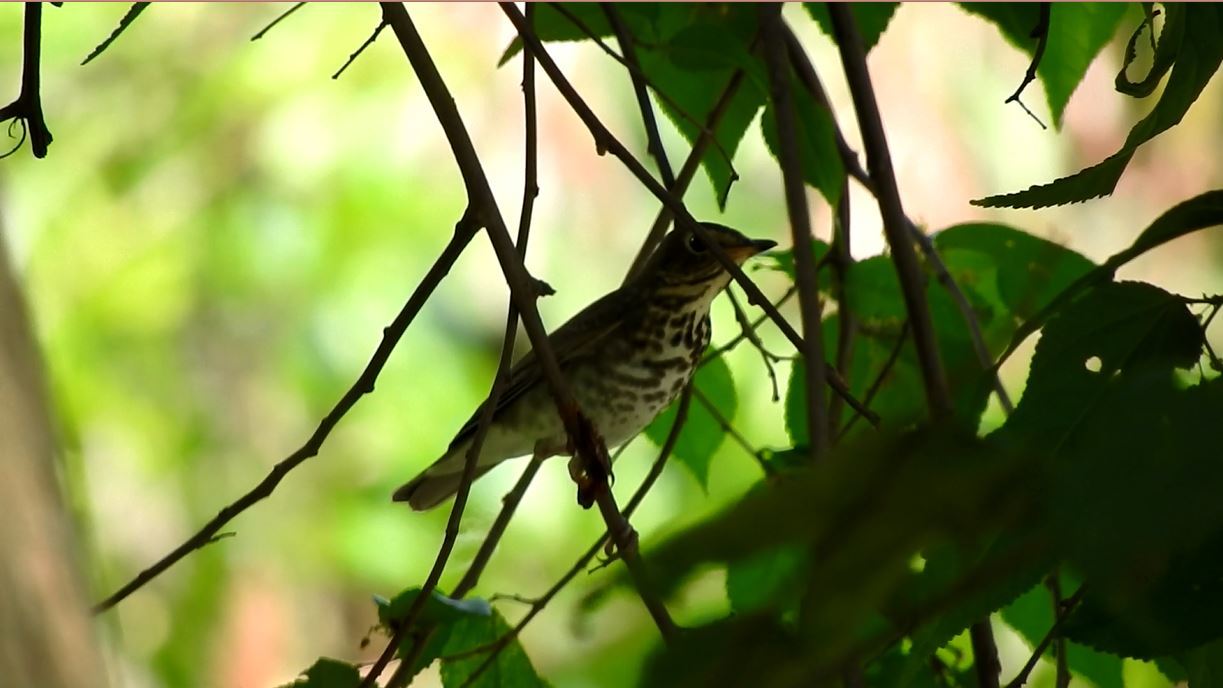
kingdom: Animalia
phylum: Chordata
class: Aves
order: Passeriformes
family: Turdidae
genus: Catharus
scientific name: Catharus ustulatus
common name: Swainson's thrush
